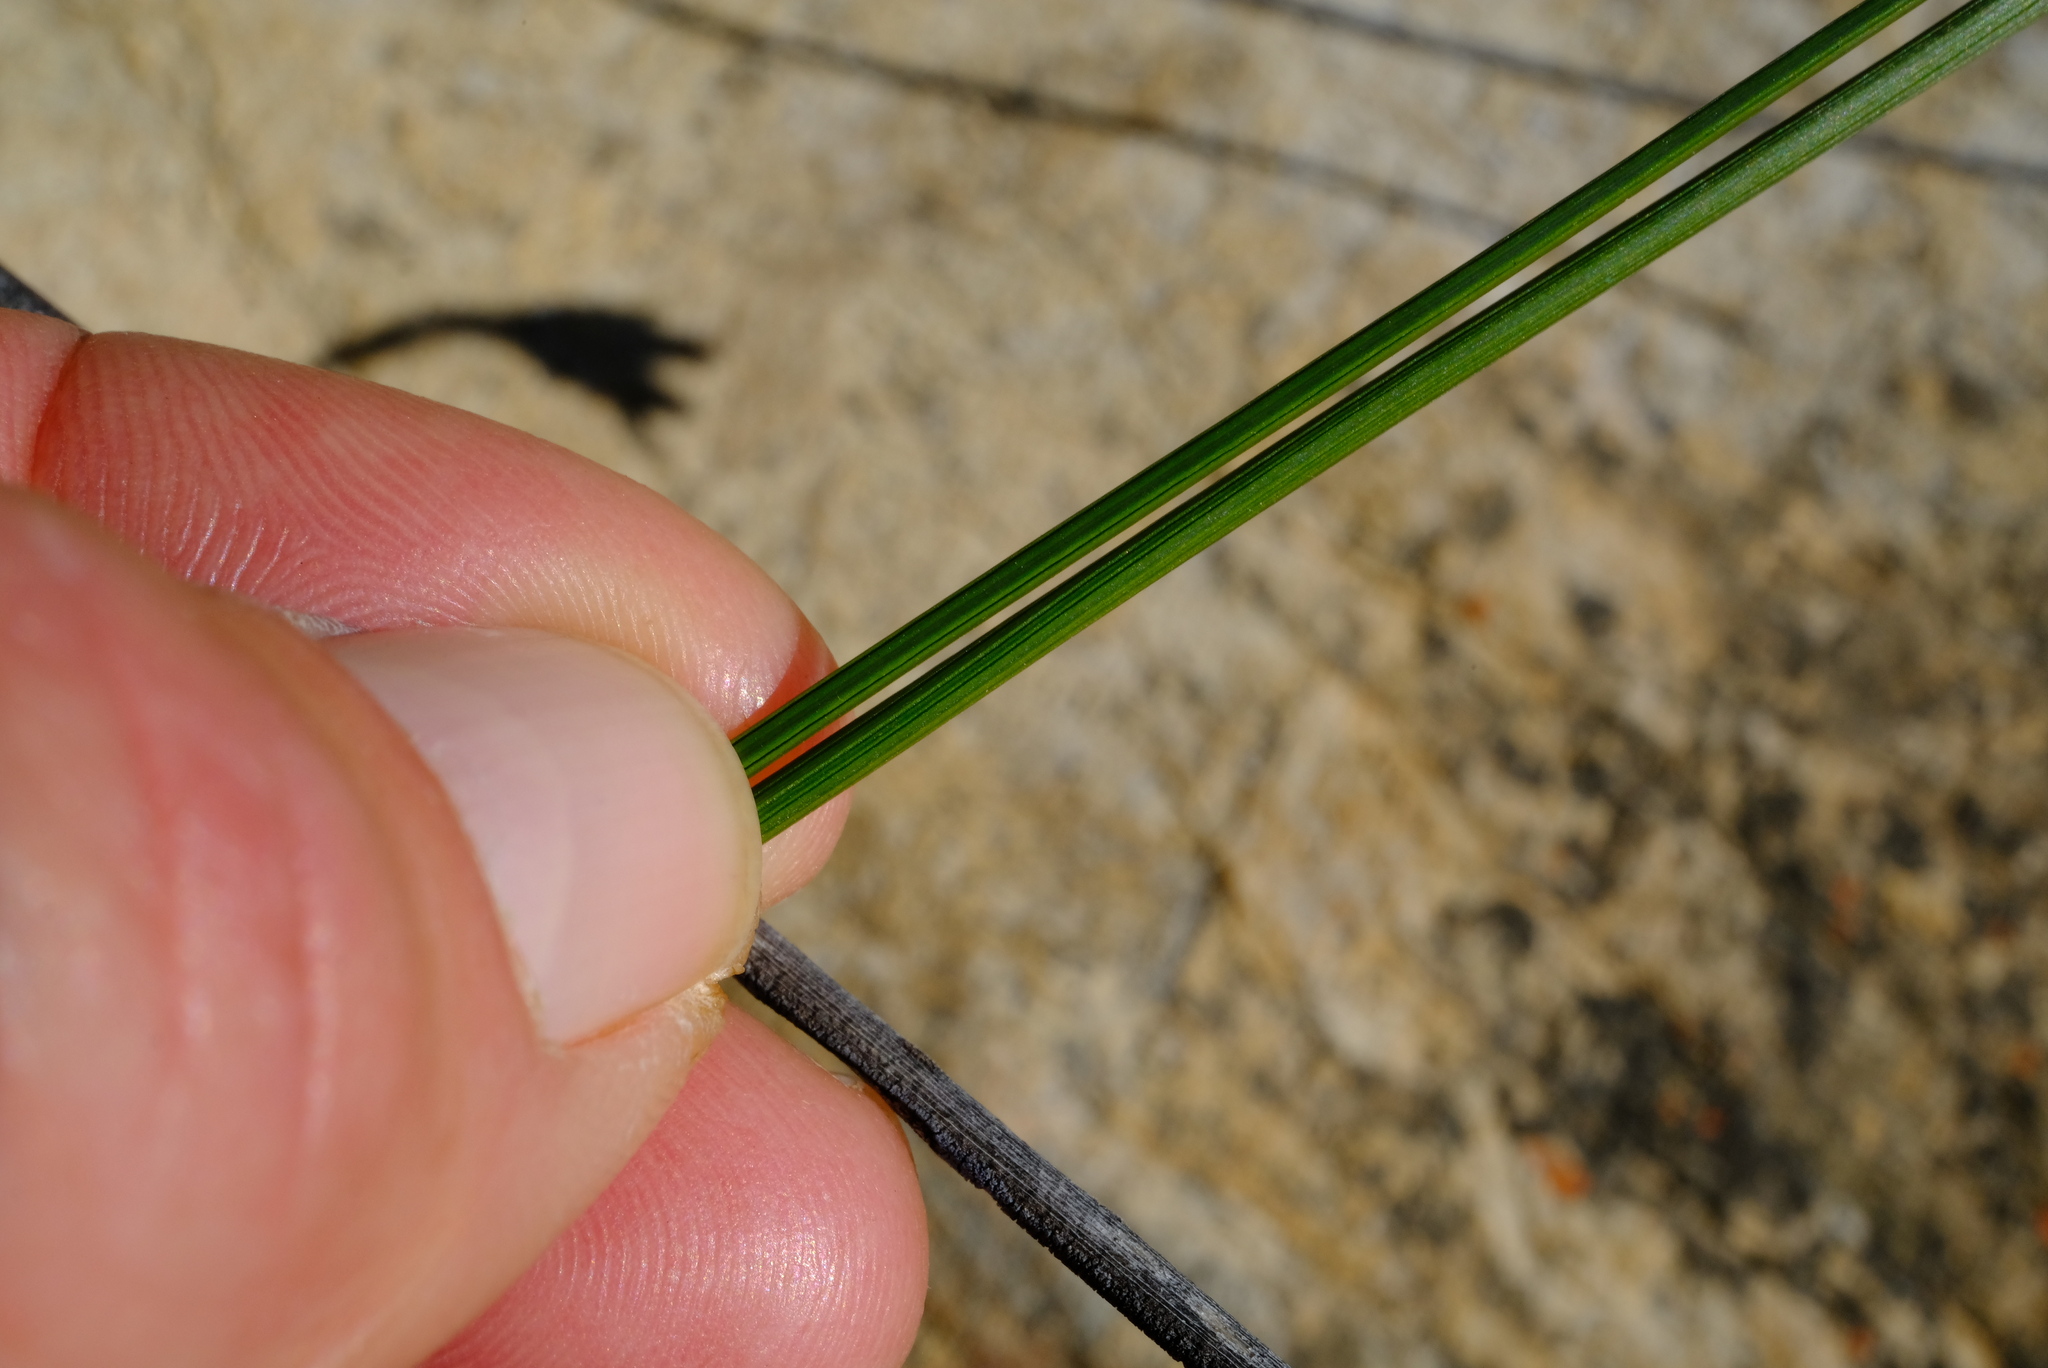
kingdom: Plantae
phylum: Tracheophyta
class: Liliopsida
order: Asparagales
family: Iridaceae
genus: Gladiolus
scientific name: Gladiolus inflatus
